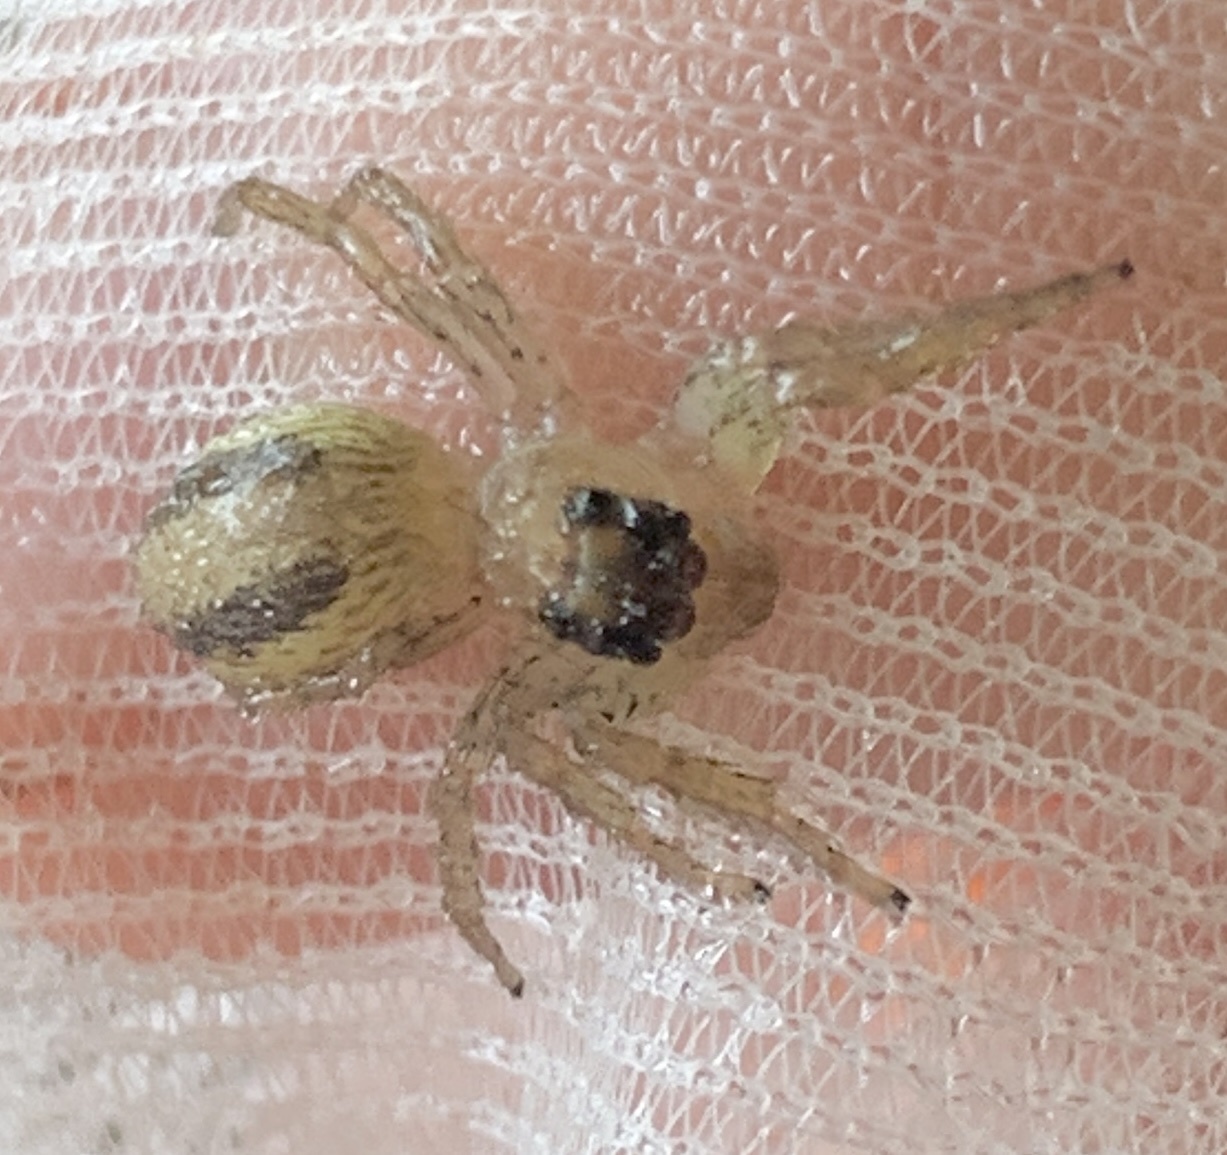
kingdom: Animalia
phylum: Arthropoda
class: Arachnida
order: Araneae
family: Salticidae
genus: Maevia
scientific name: Maevia inclemens
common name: Dimorphic jumper
